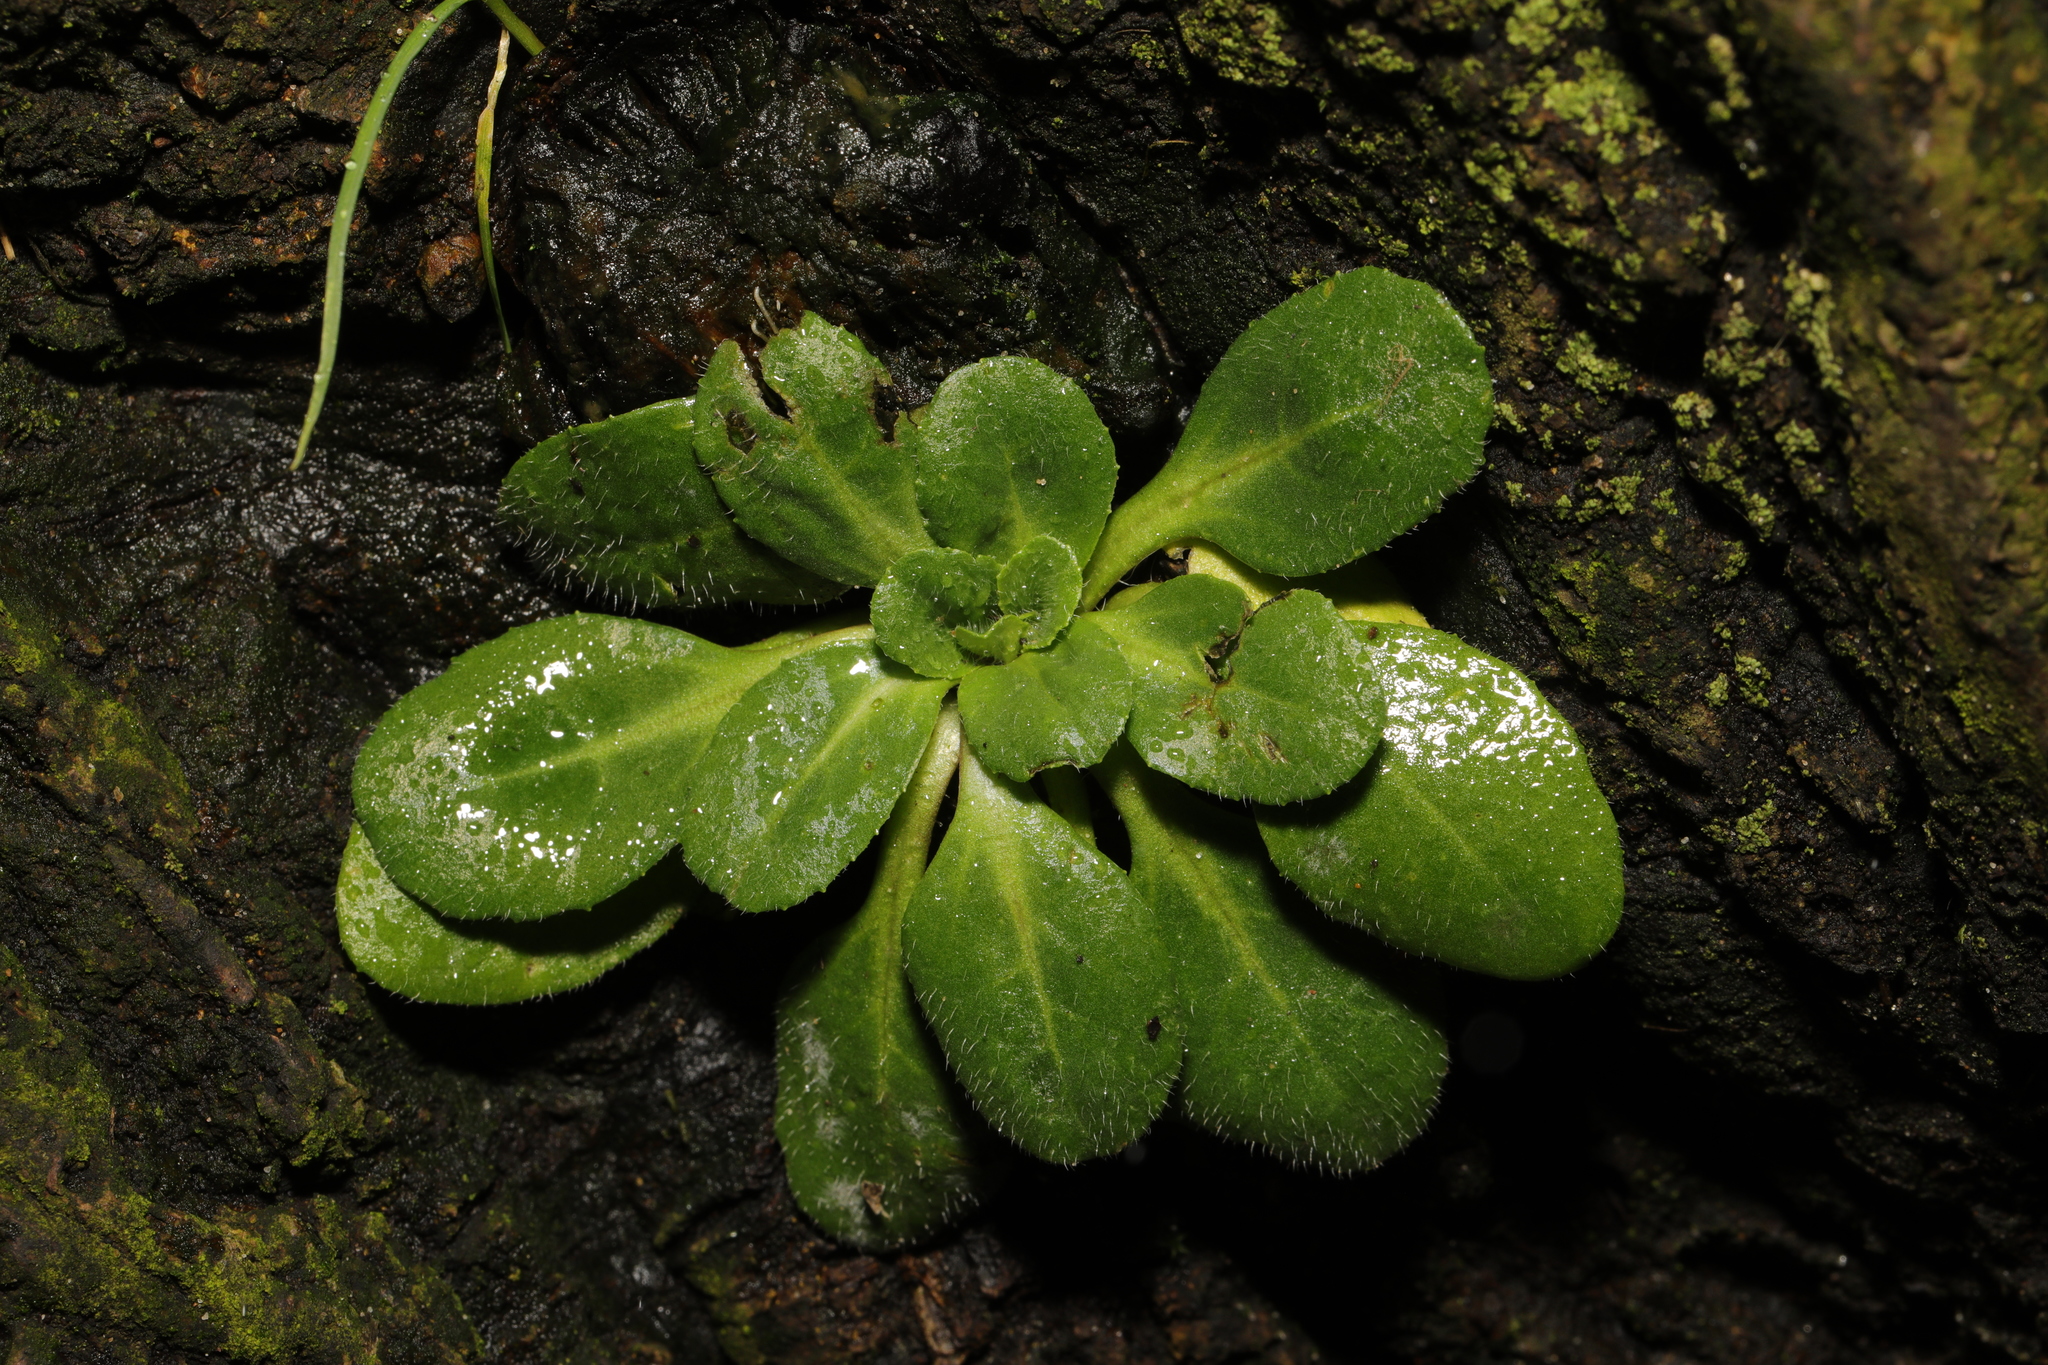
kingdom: Plantae
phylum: Tracheophyta
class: Magnoliopsida
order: Asterales
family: Asteraceae
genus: Bellis
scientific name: Bellis perennis
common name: Lawndaisy
